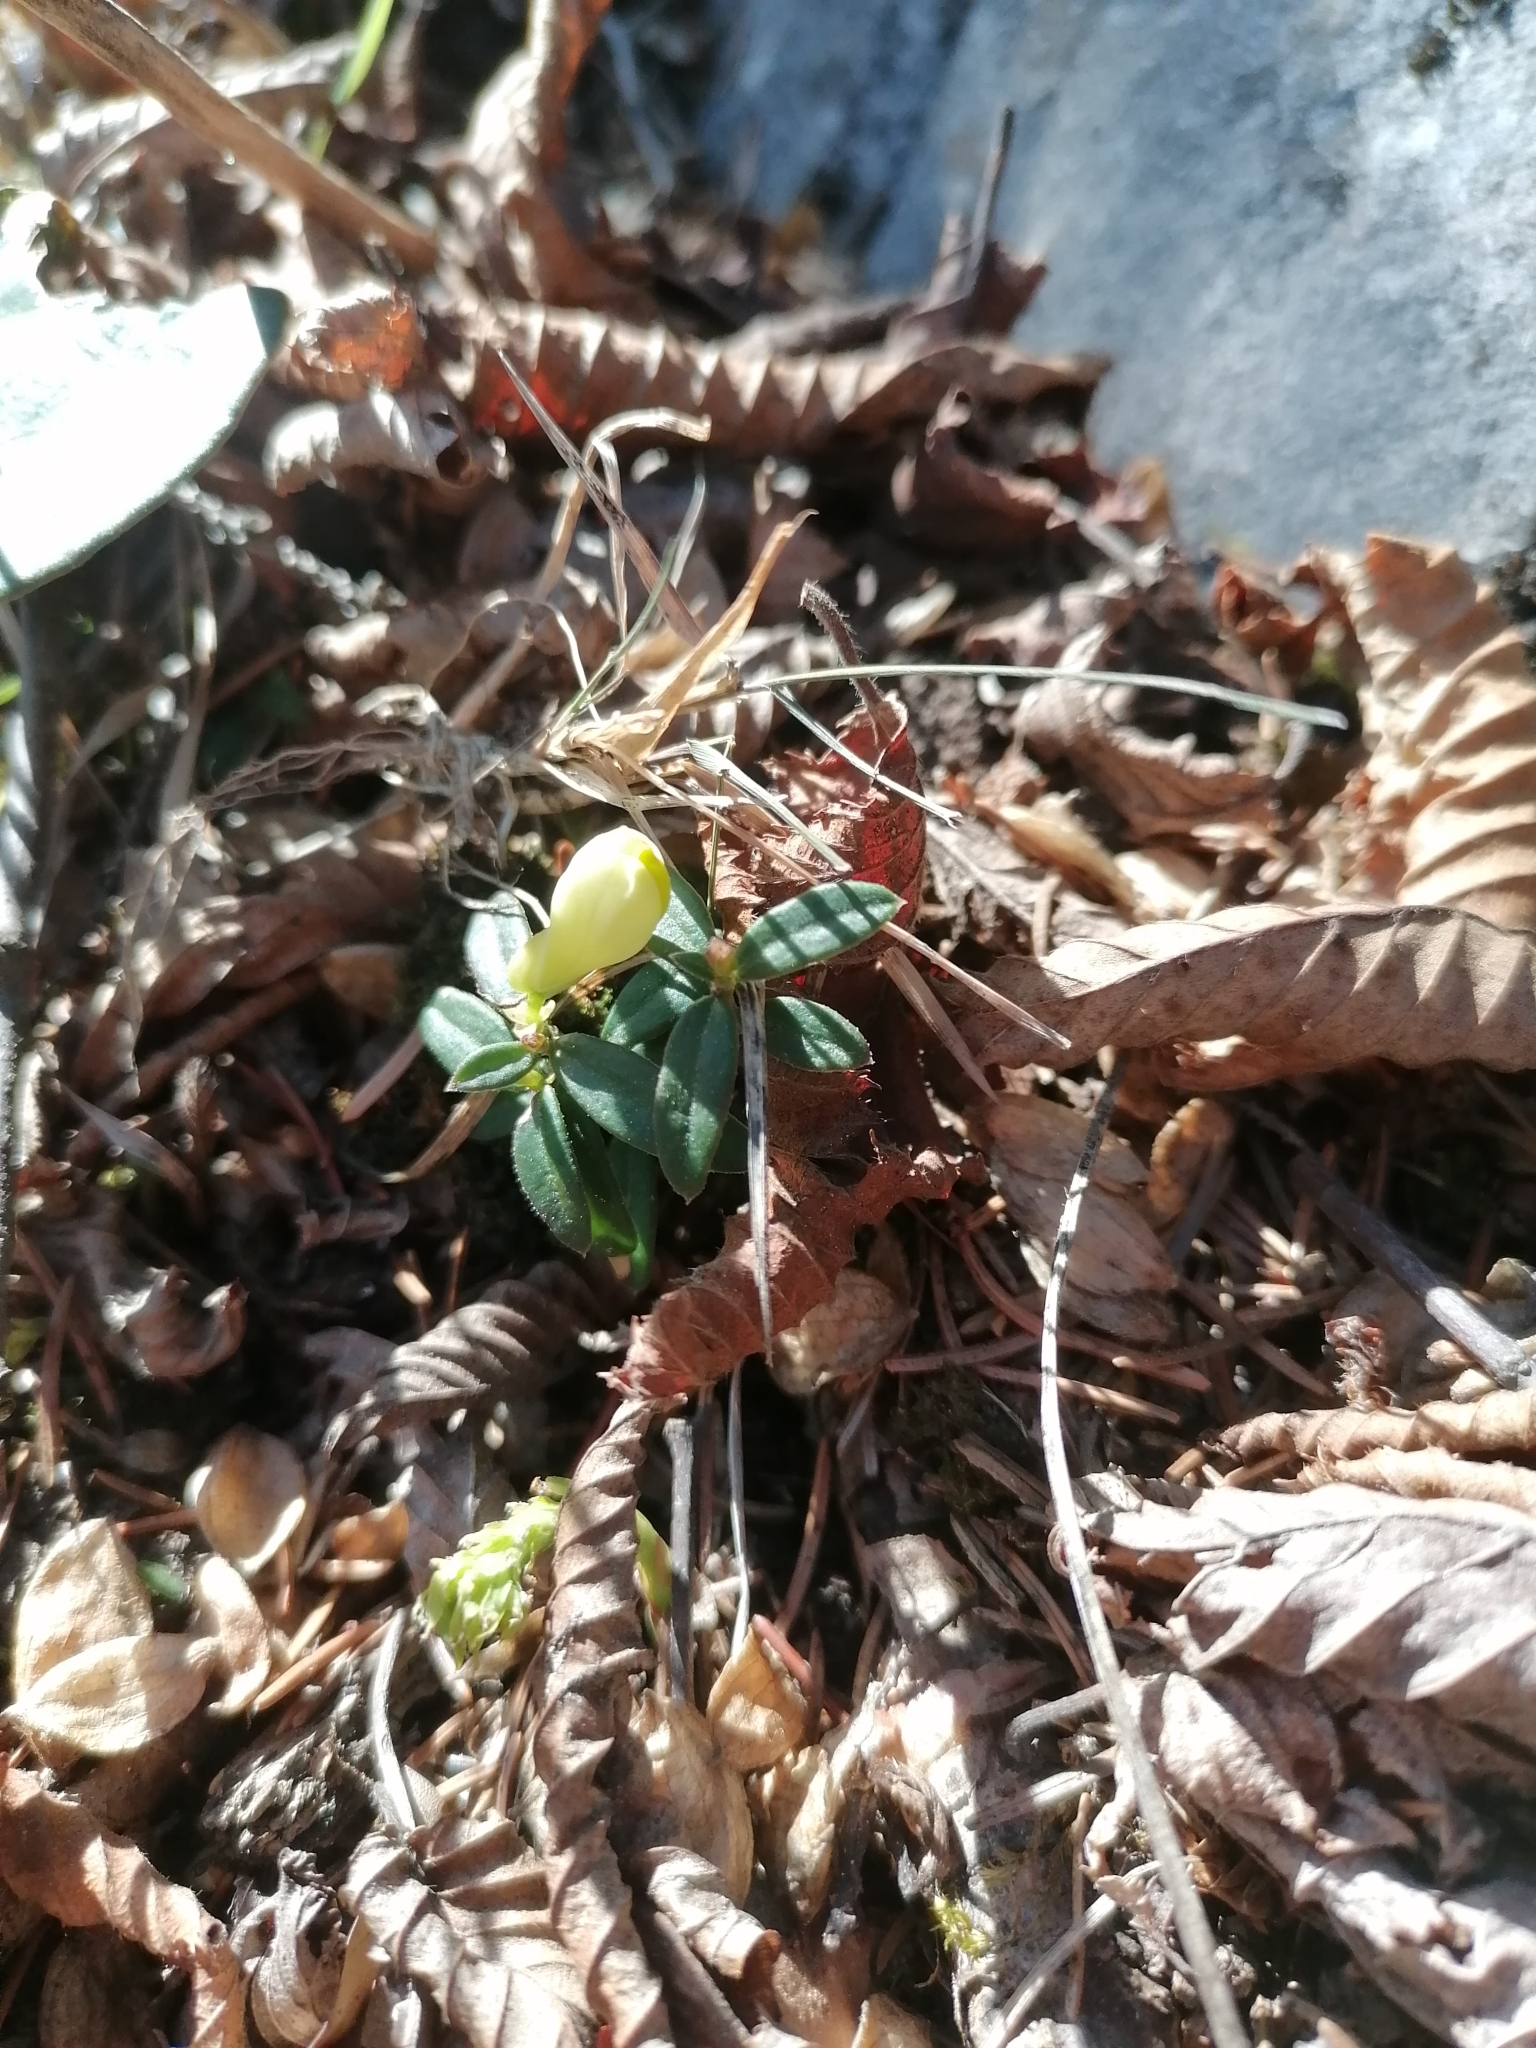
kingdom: Plantae
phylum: Tracheophyta
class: Magnoliopsida
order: Fabales
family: Polygalaceae
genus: Polygaloides
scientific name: Polygaloides chamaebuxus
